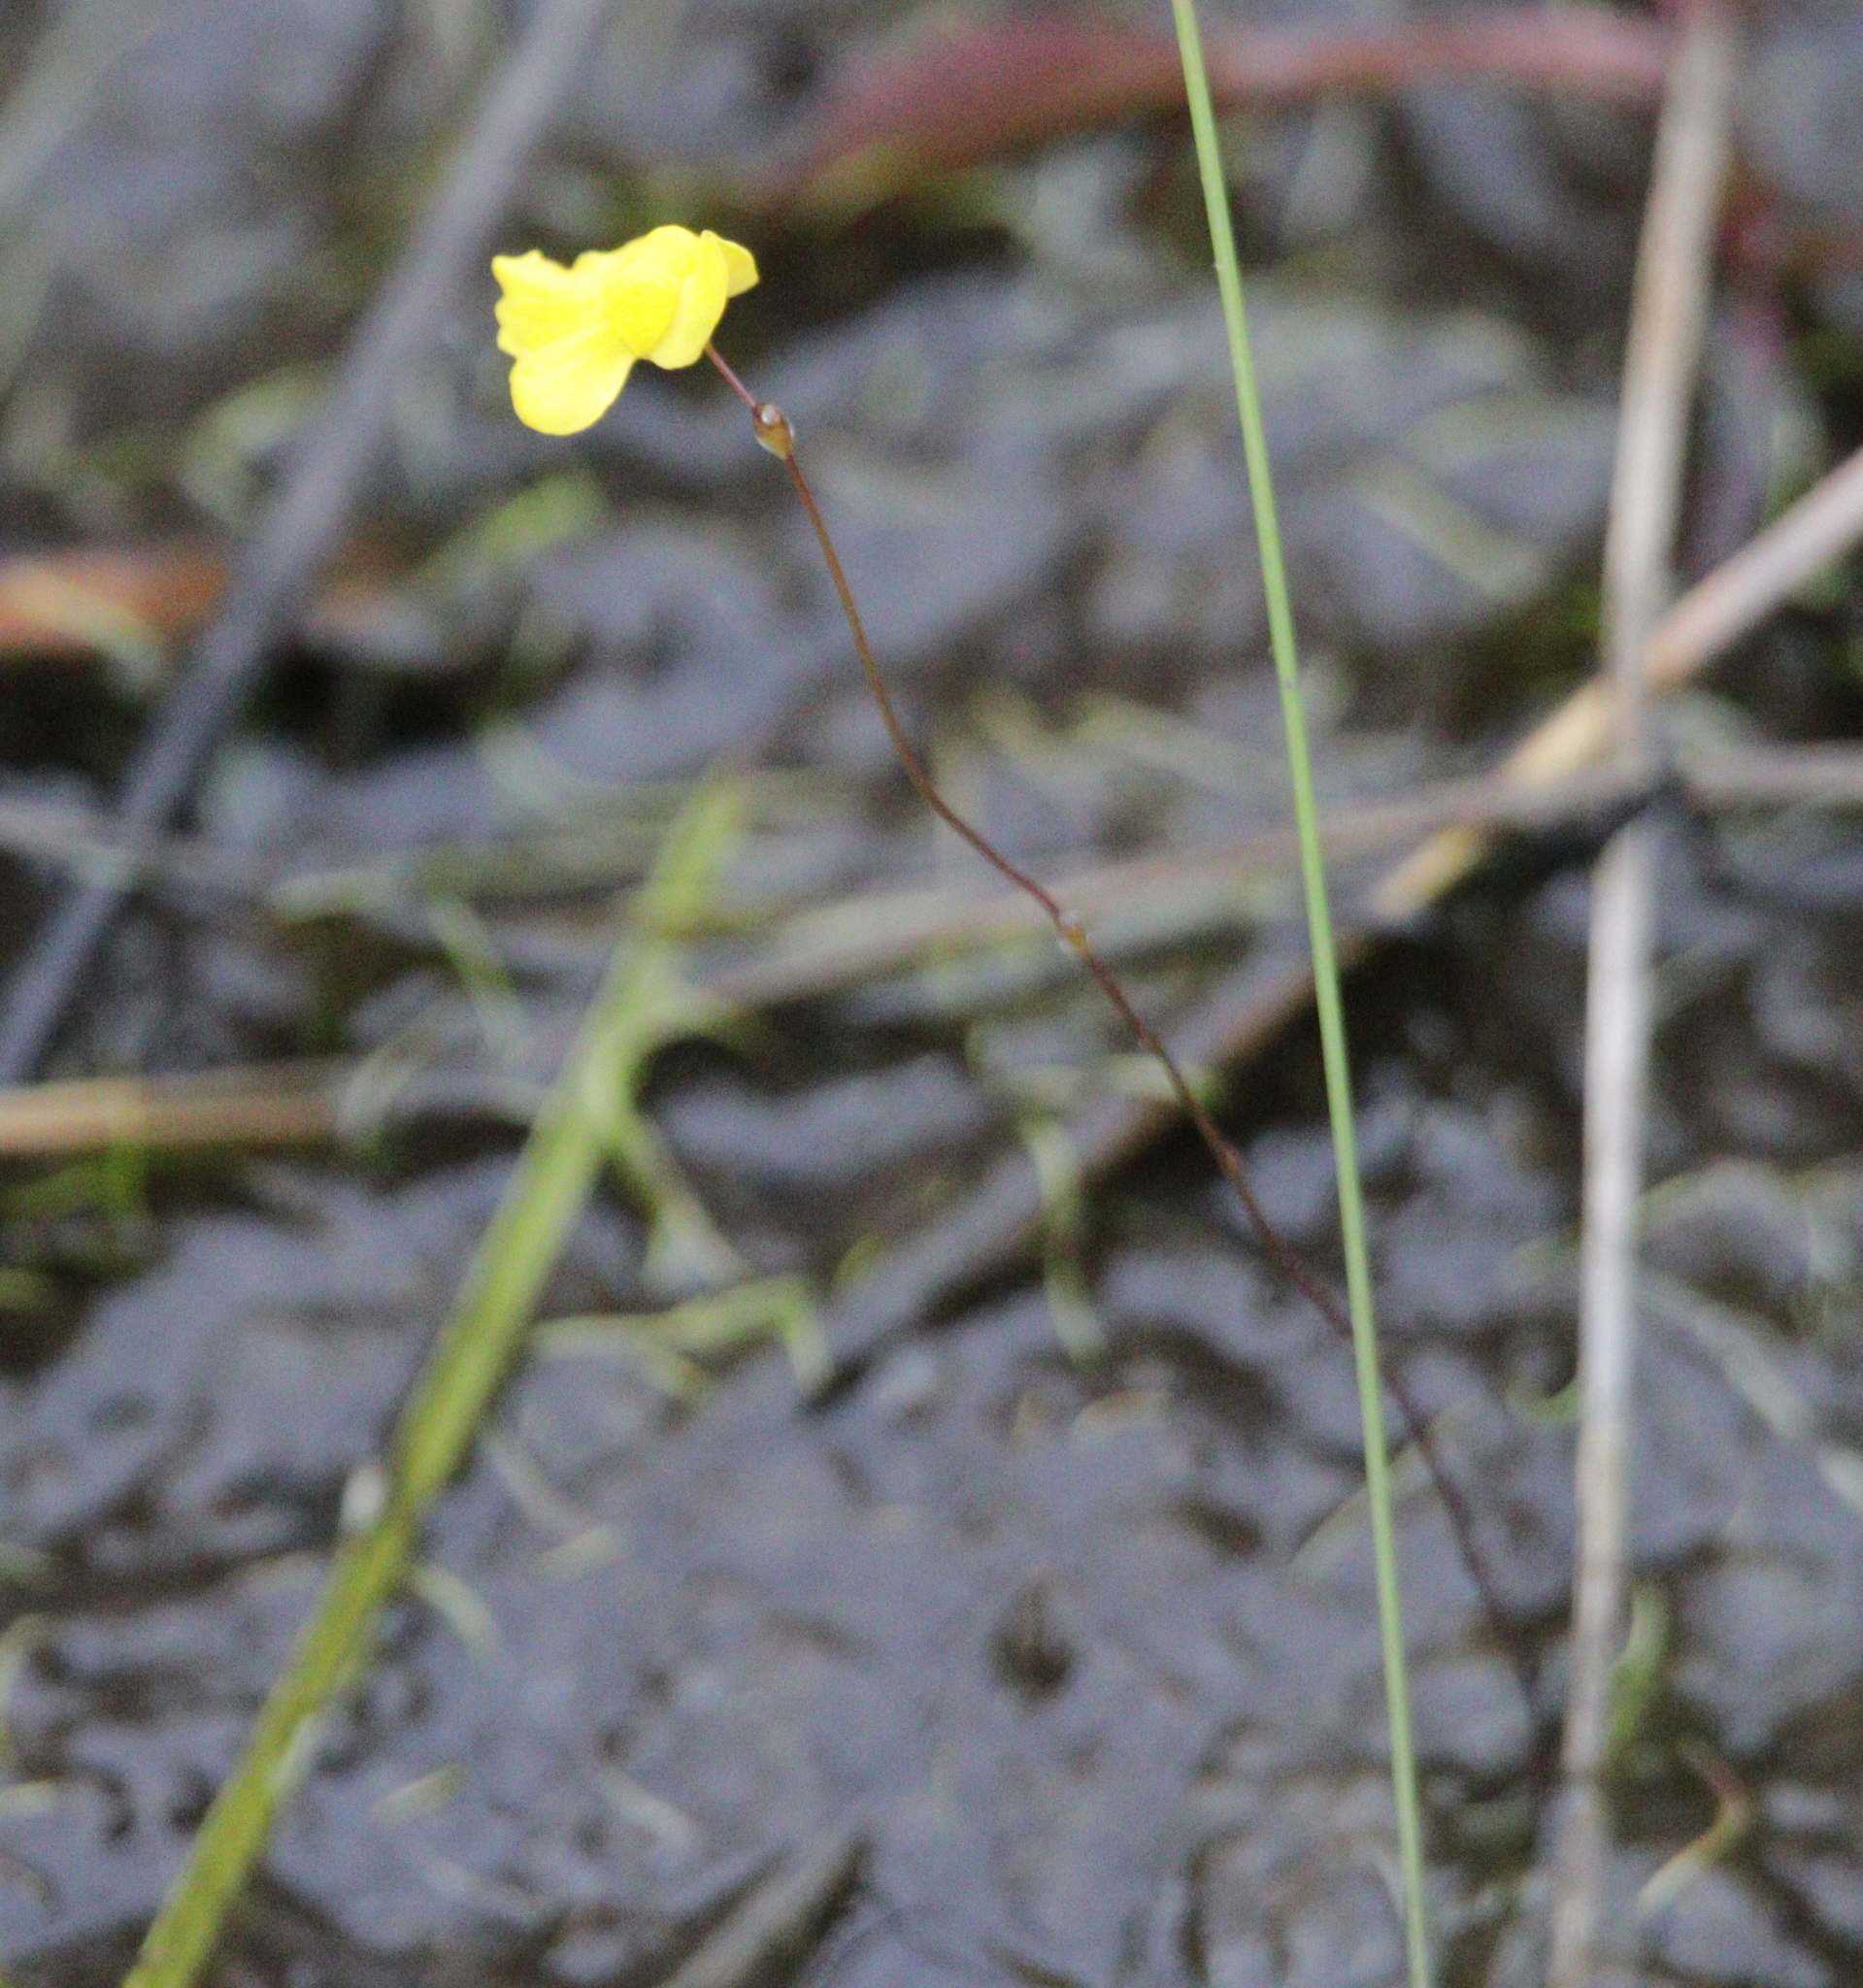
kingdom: Plantae
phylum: Tracheophyta
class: Magnoliopsida
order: Lamiales
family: Lentibulariaceae
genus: Utricularia
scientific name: Utricularia subulata
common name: Tiny bladderwort
